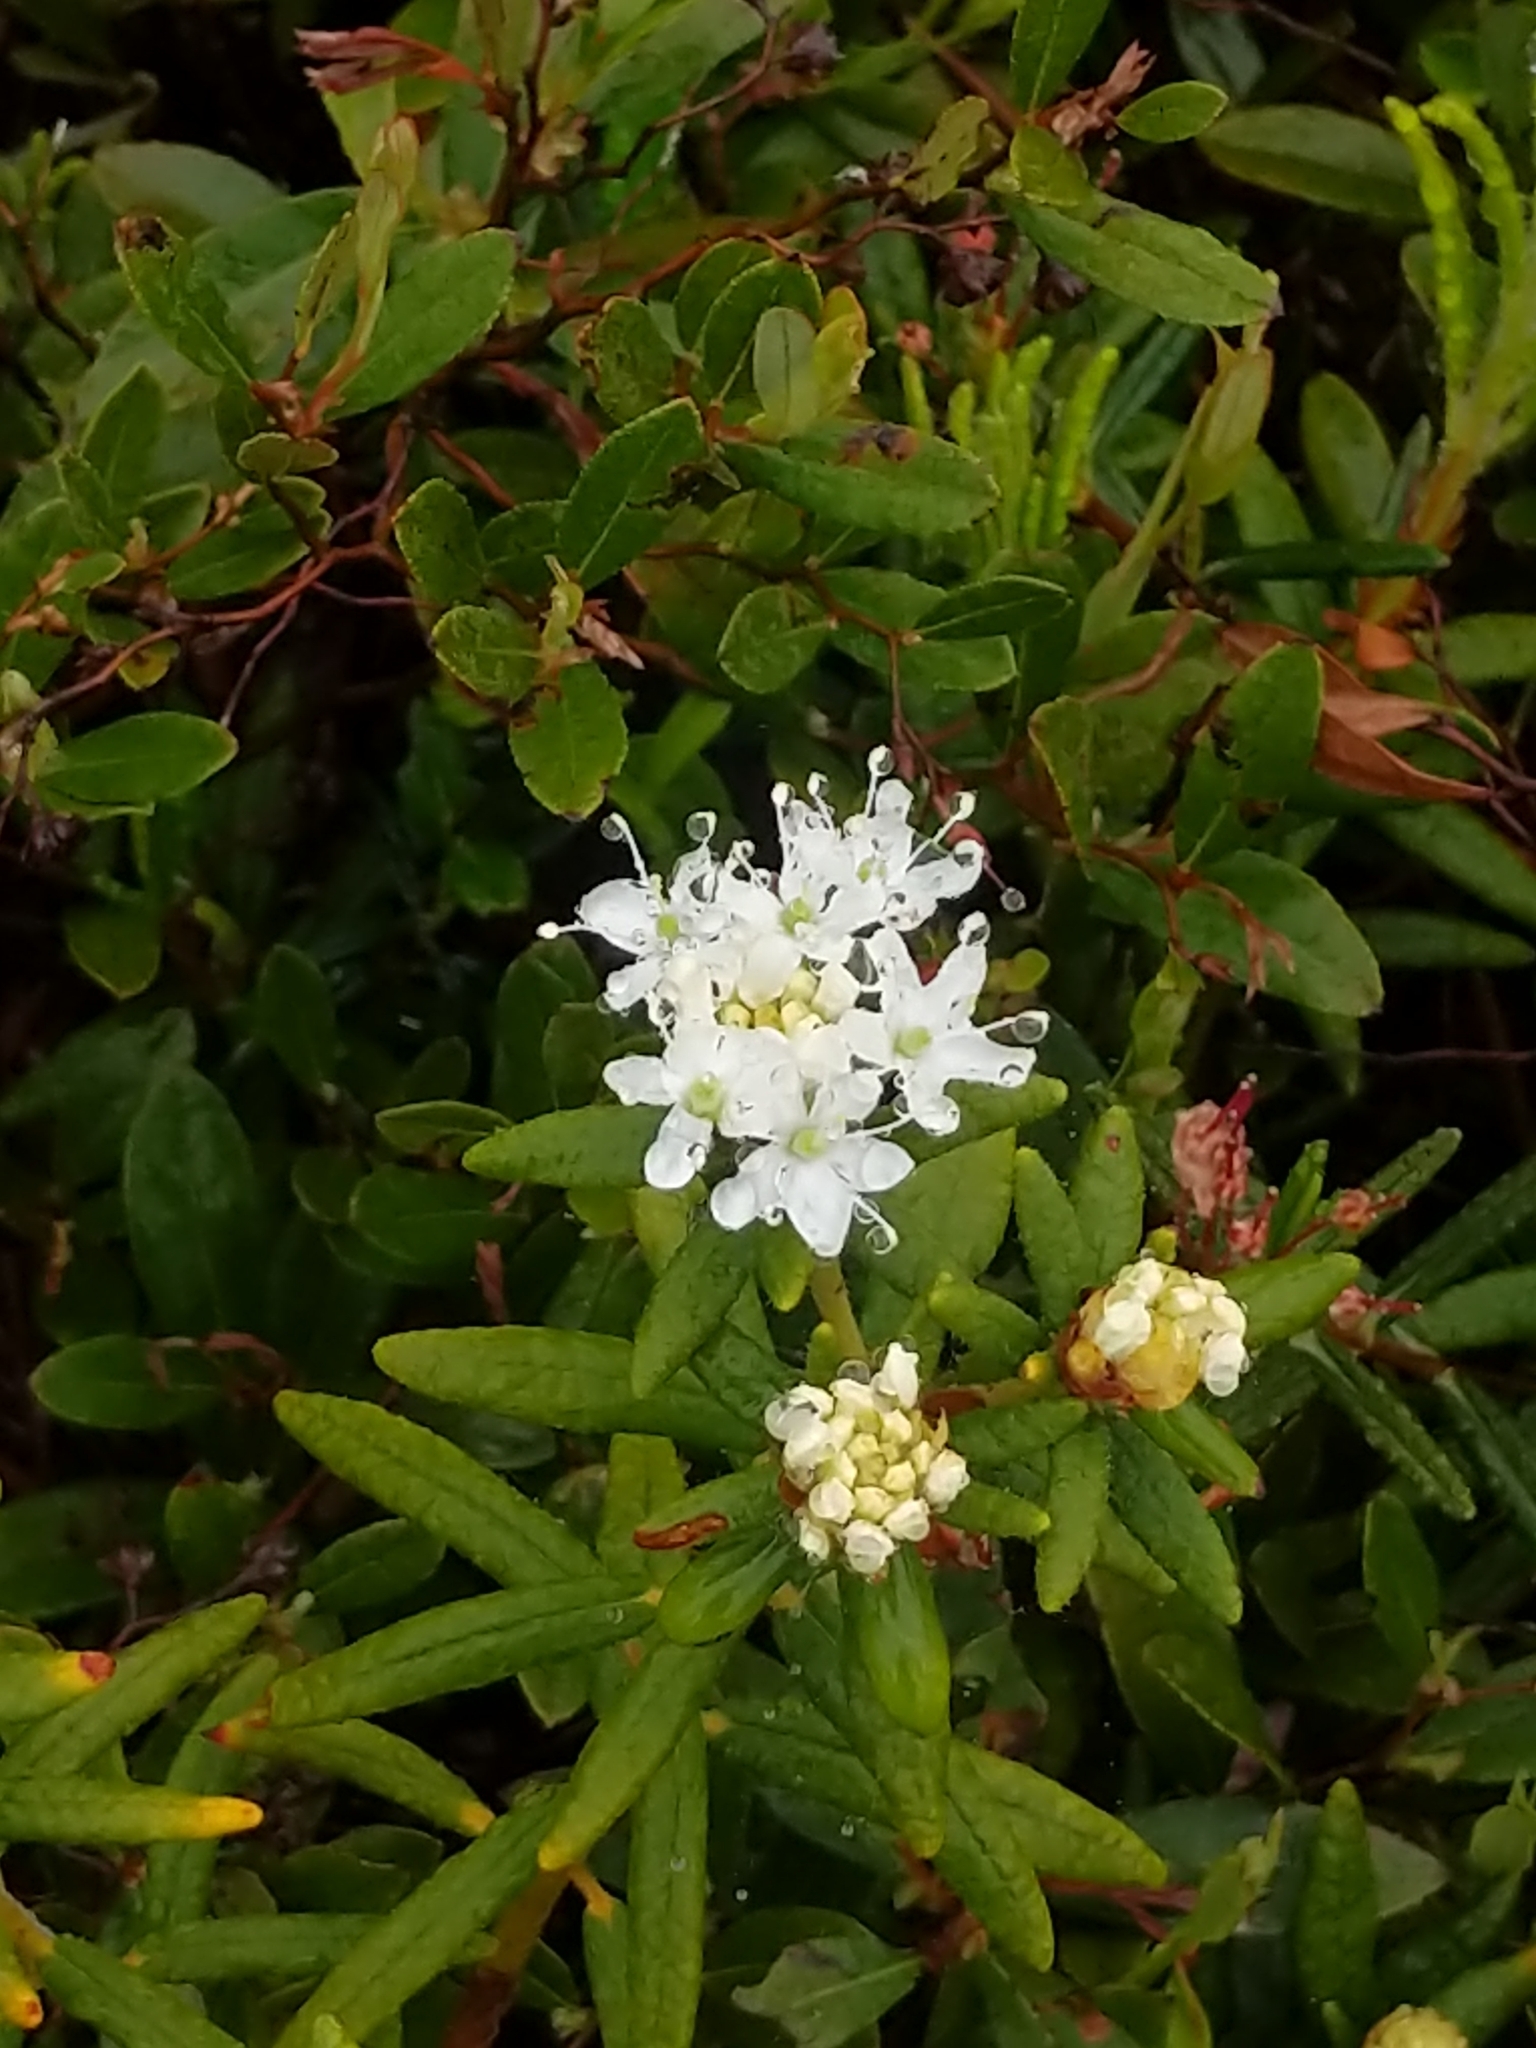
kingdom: Plantae
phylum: Tracheophyta
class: Magnoliopsida
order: Ericales
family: Ericaceae
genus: Rhododendron
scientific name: Rhododendron groenlandicum
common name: Bog labrador tea
